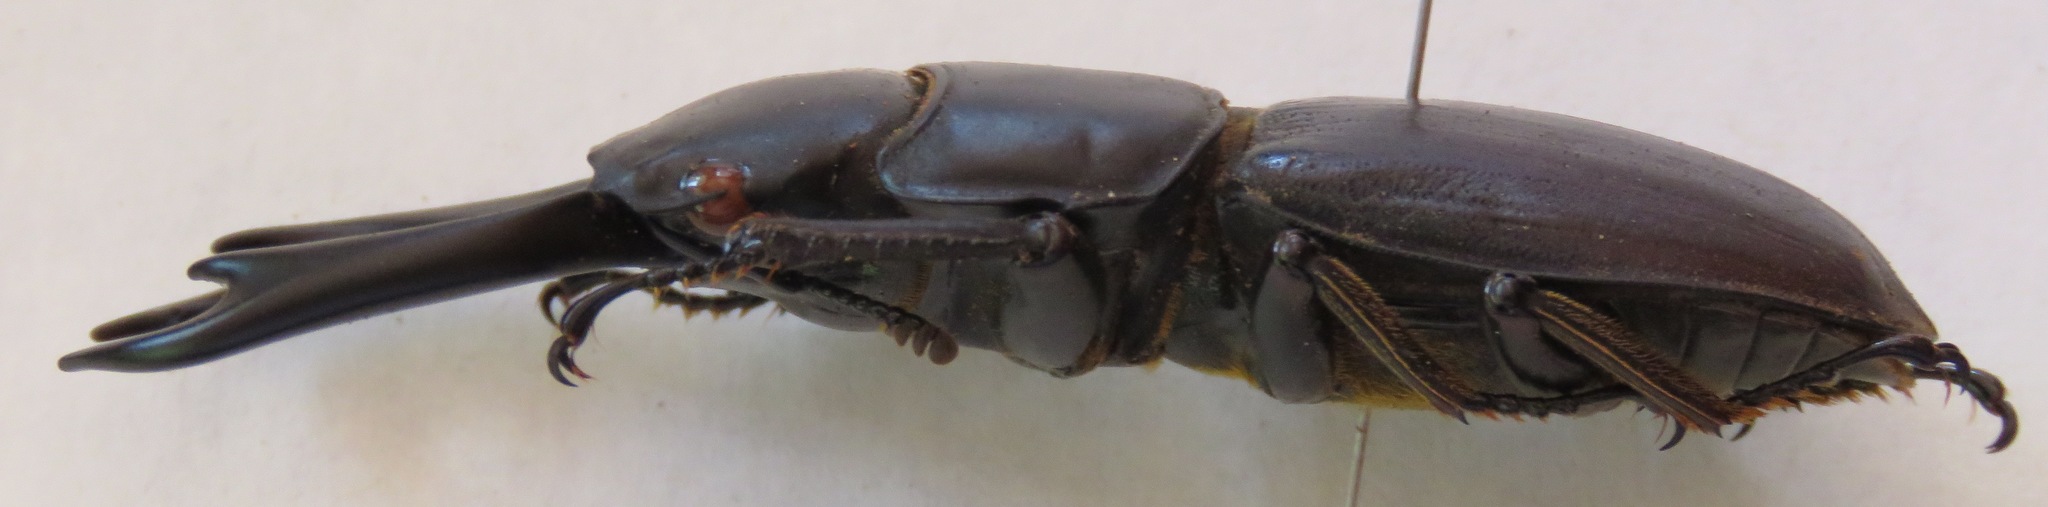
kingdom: Animalia
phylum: Arthropoda
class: Insecta
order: Coleoptera
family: Lucanidae
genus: Dorcus
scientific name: Dorcus ritsemae
